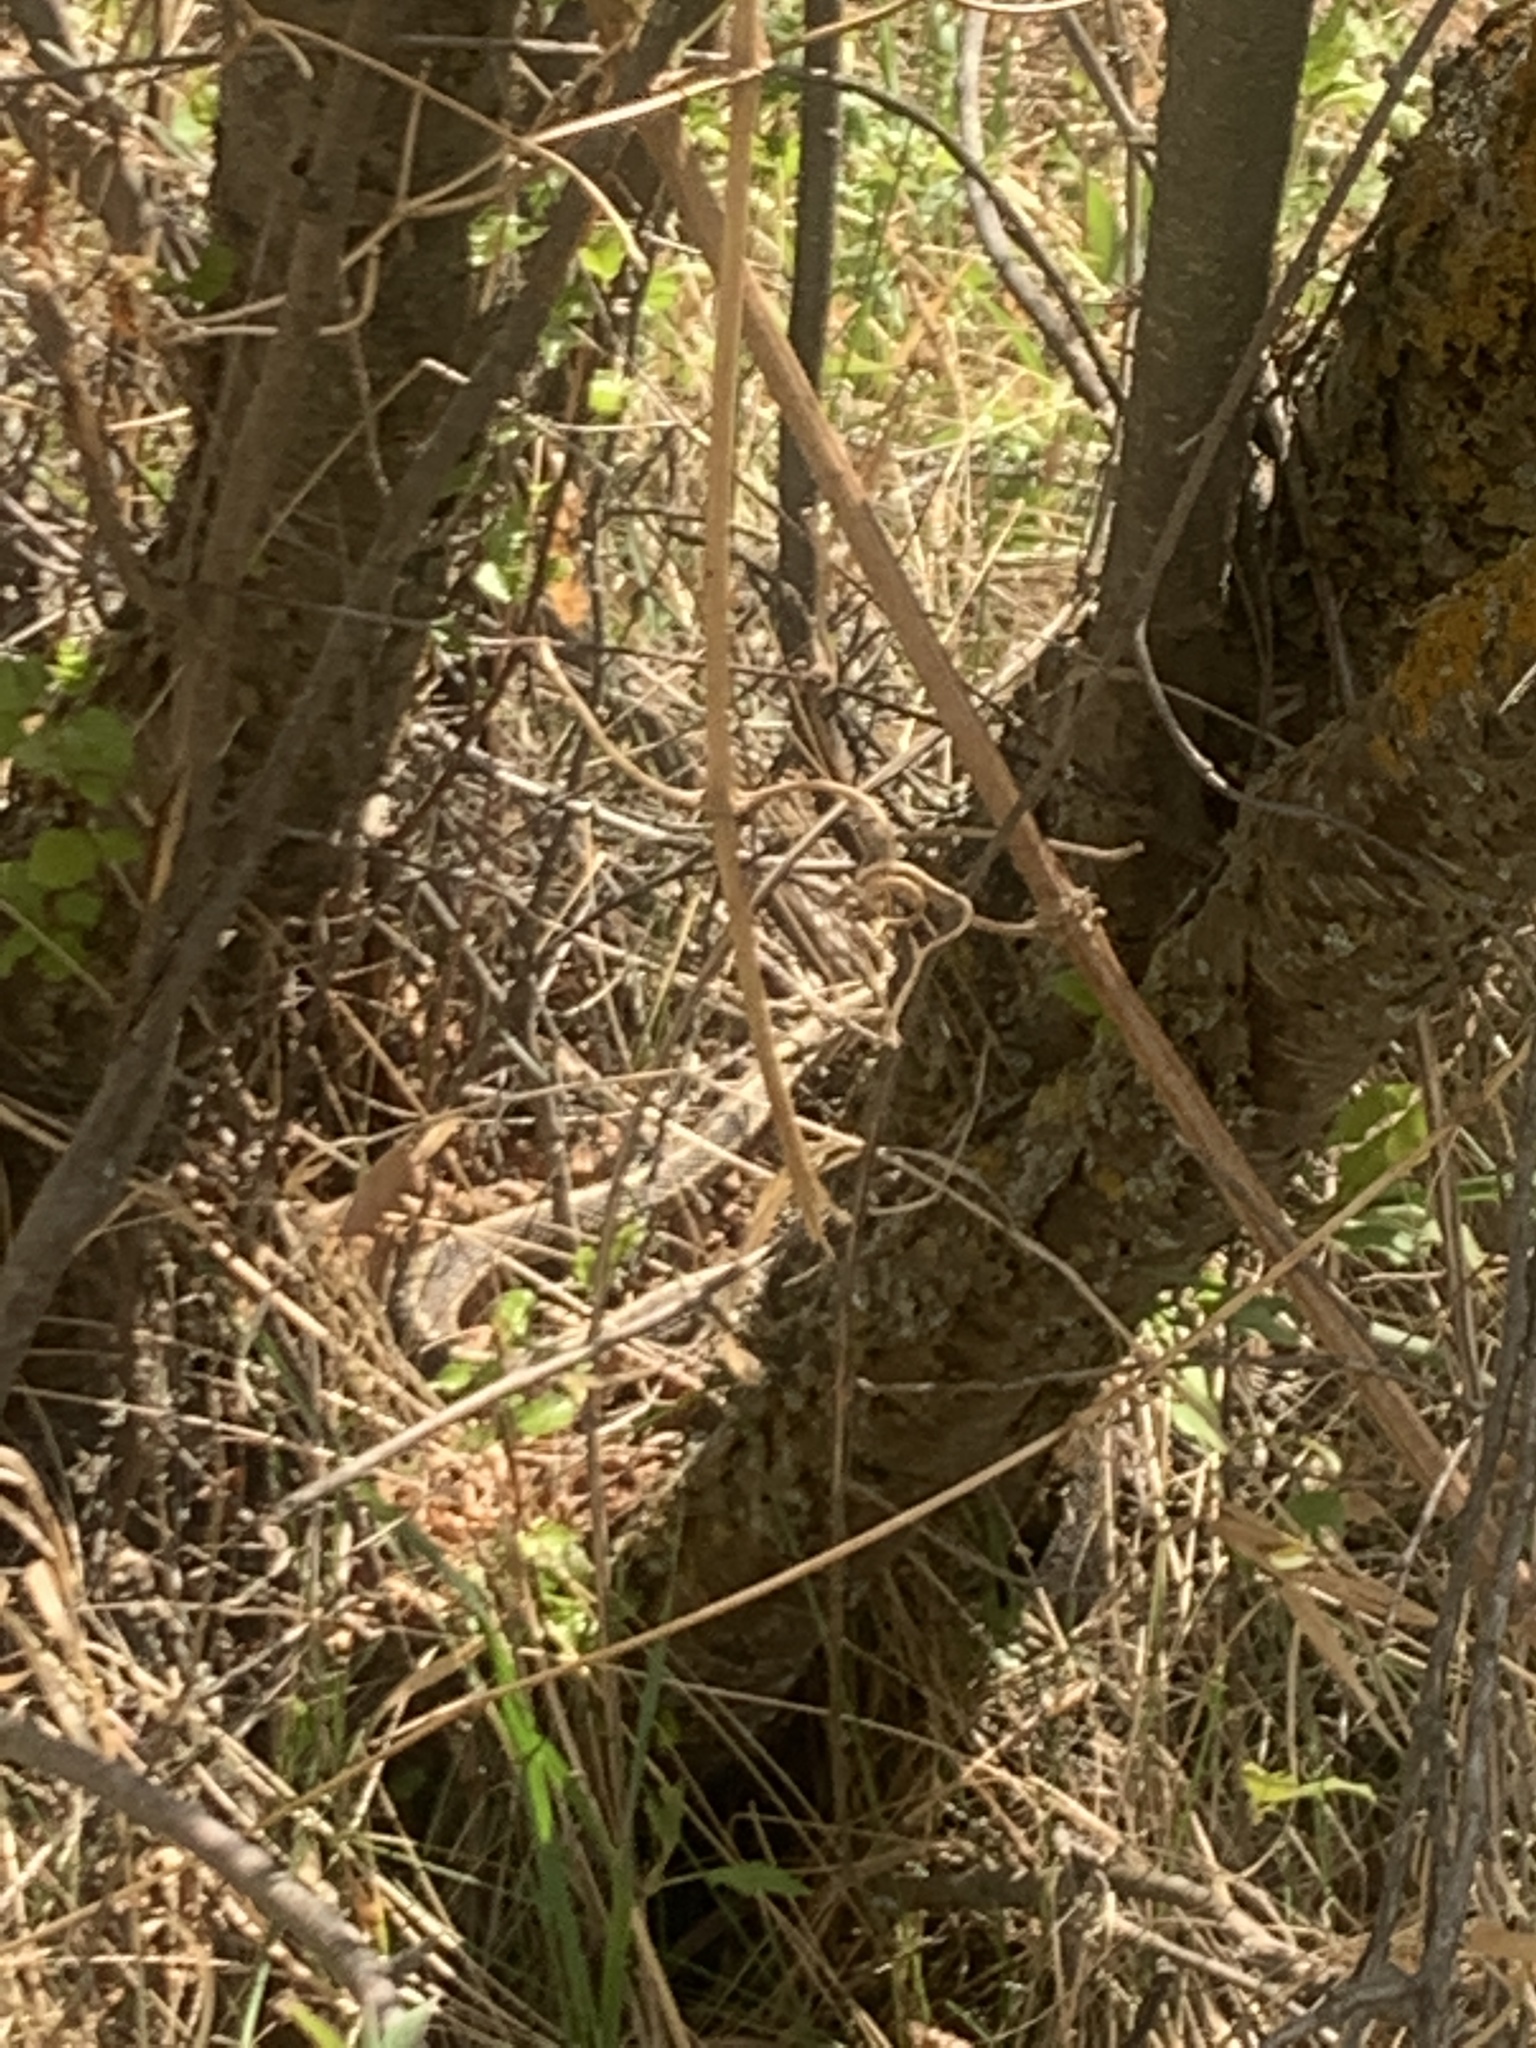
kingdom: Animalia
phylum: Chordata
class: Squamata
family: Colubridae
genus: Thamnophis
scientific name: Thamnophis elegans
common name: Western terrestrial garter snake
